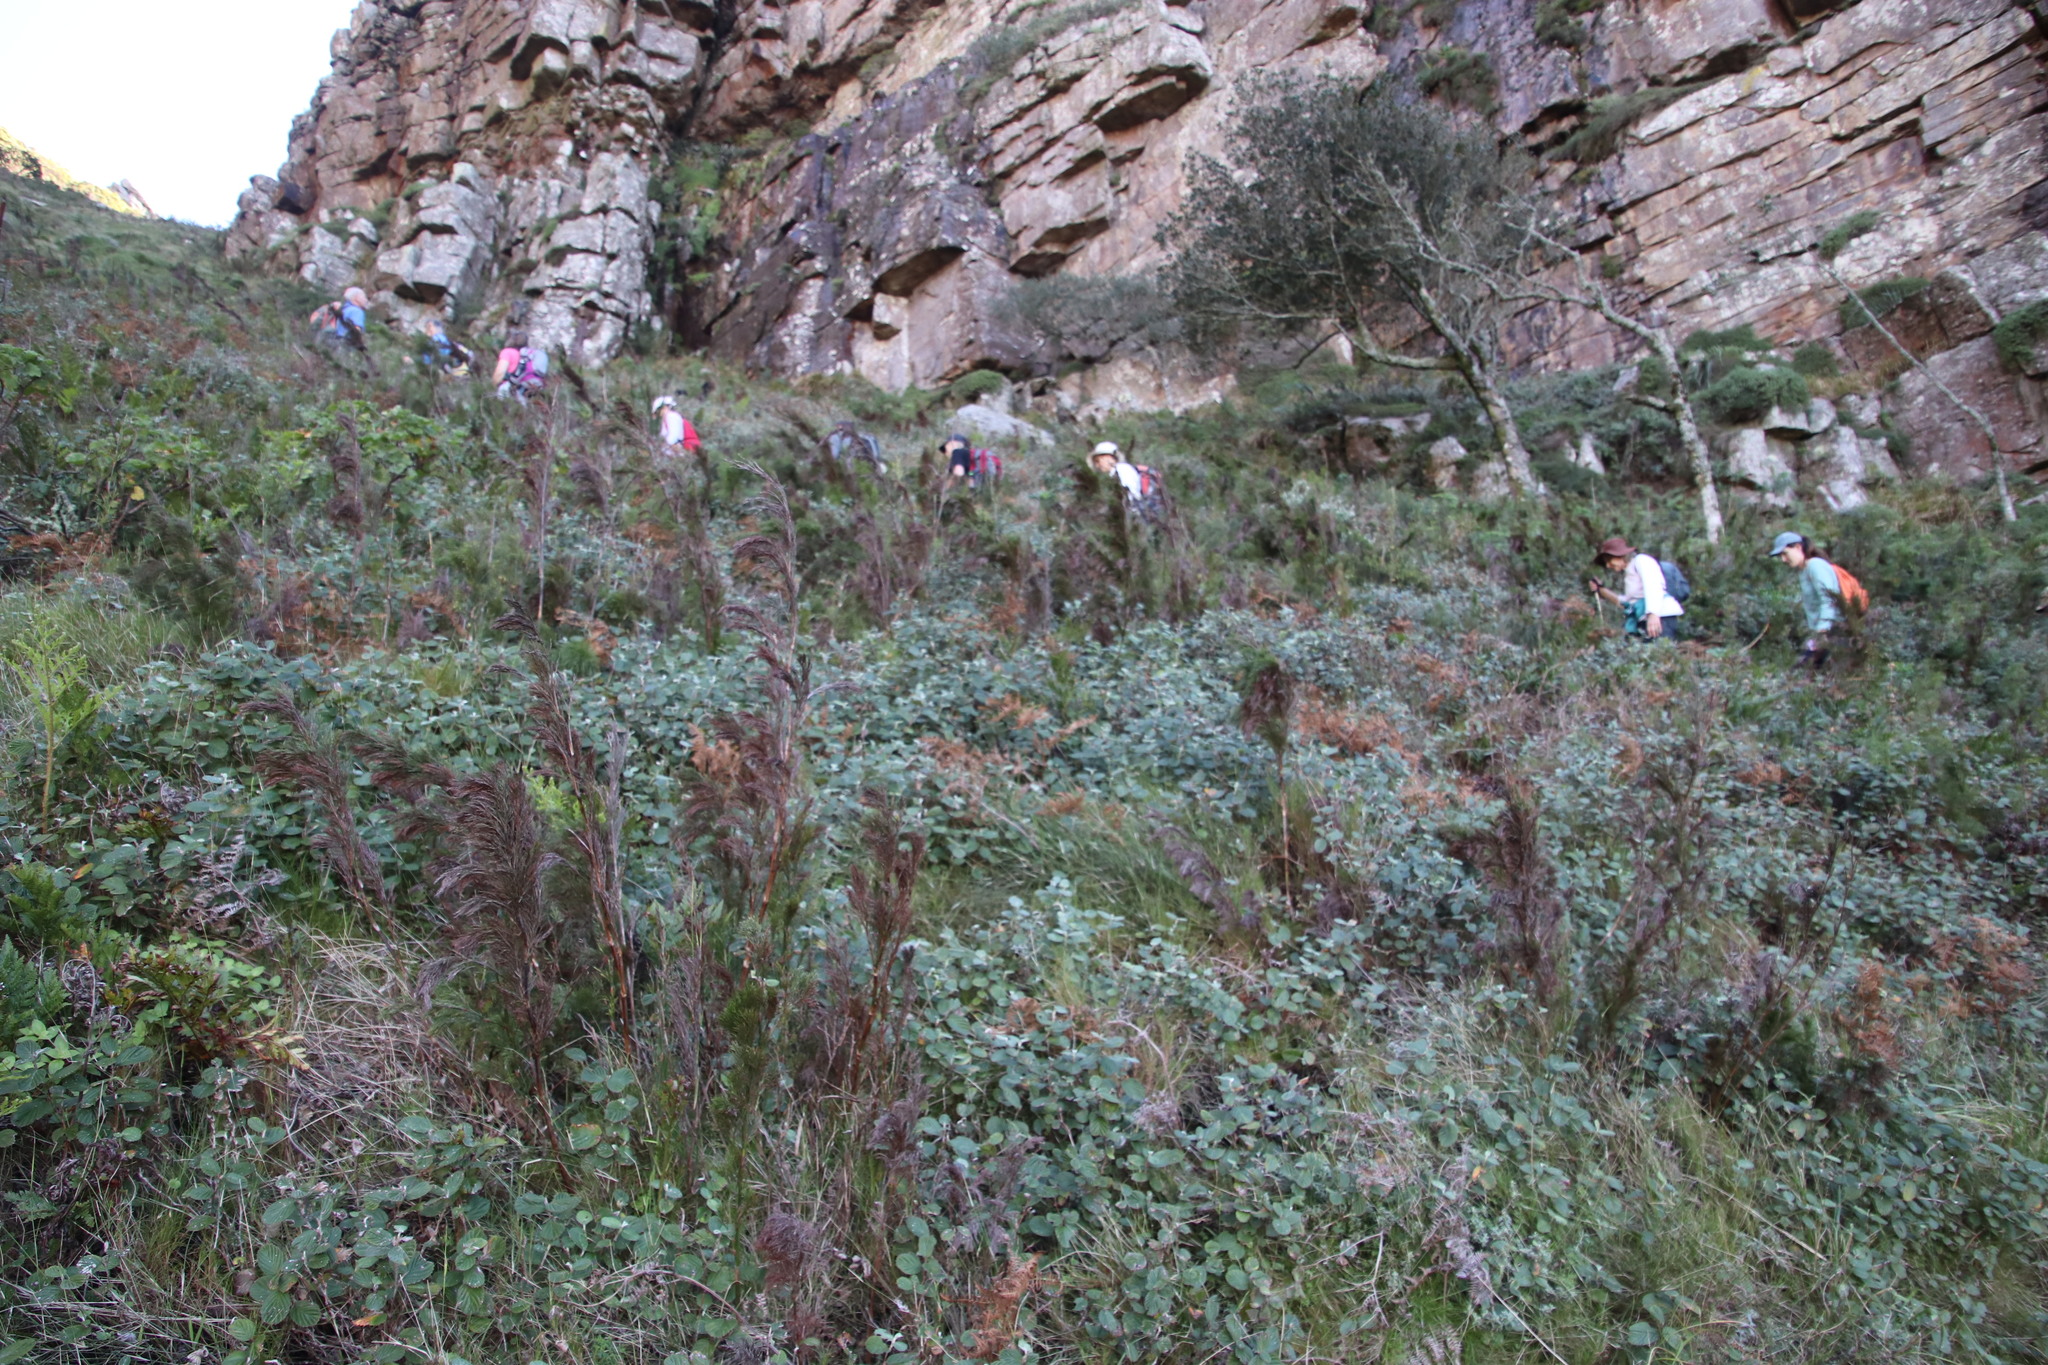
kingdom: Plantae
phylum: Tracheophyta
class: Magnoliopsida
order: Rosales
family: Rosaceae
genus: Cliffortia
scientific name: Cliffortia odorata
